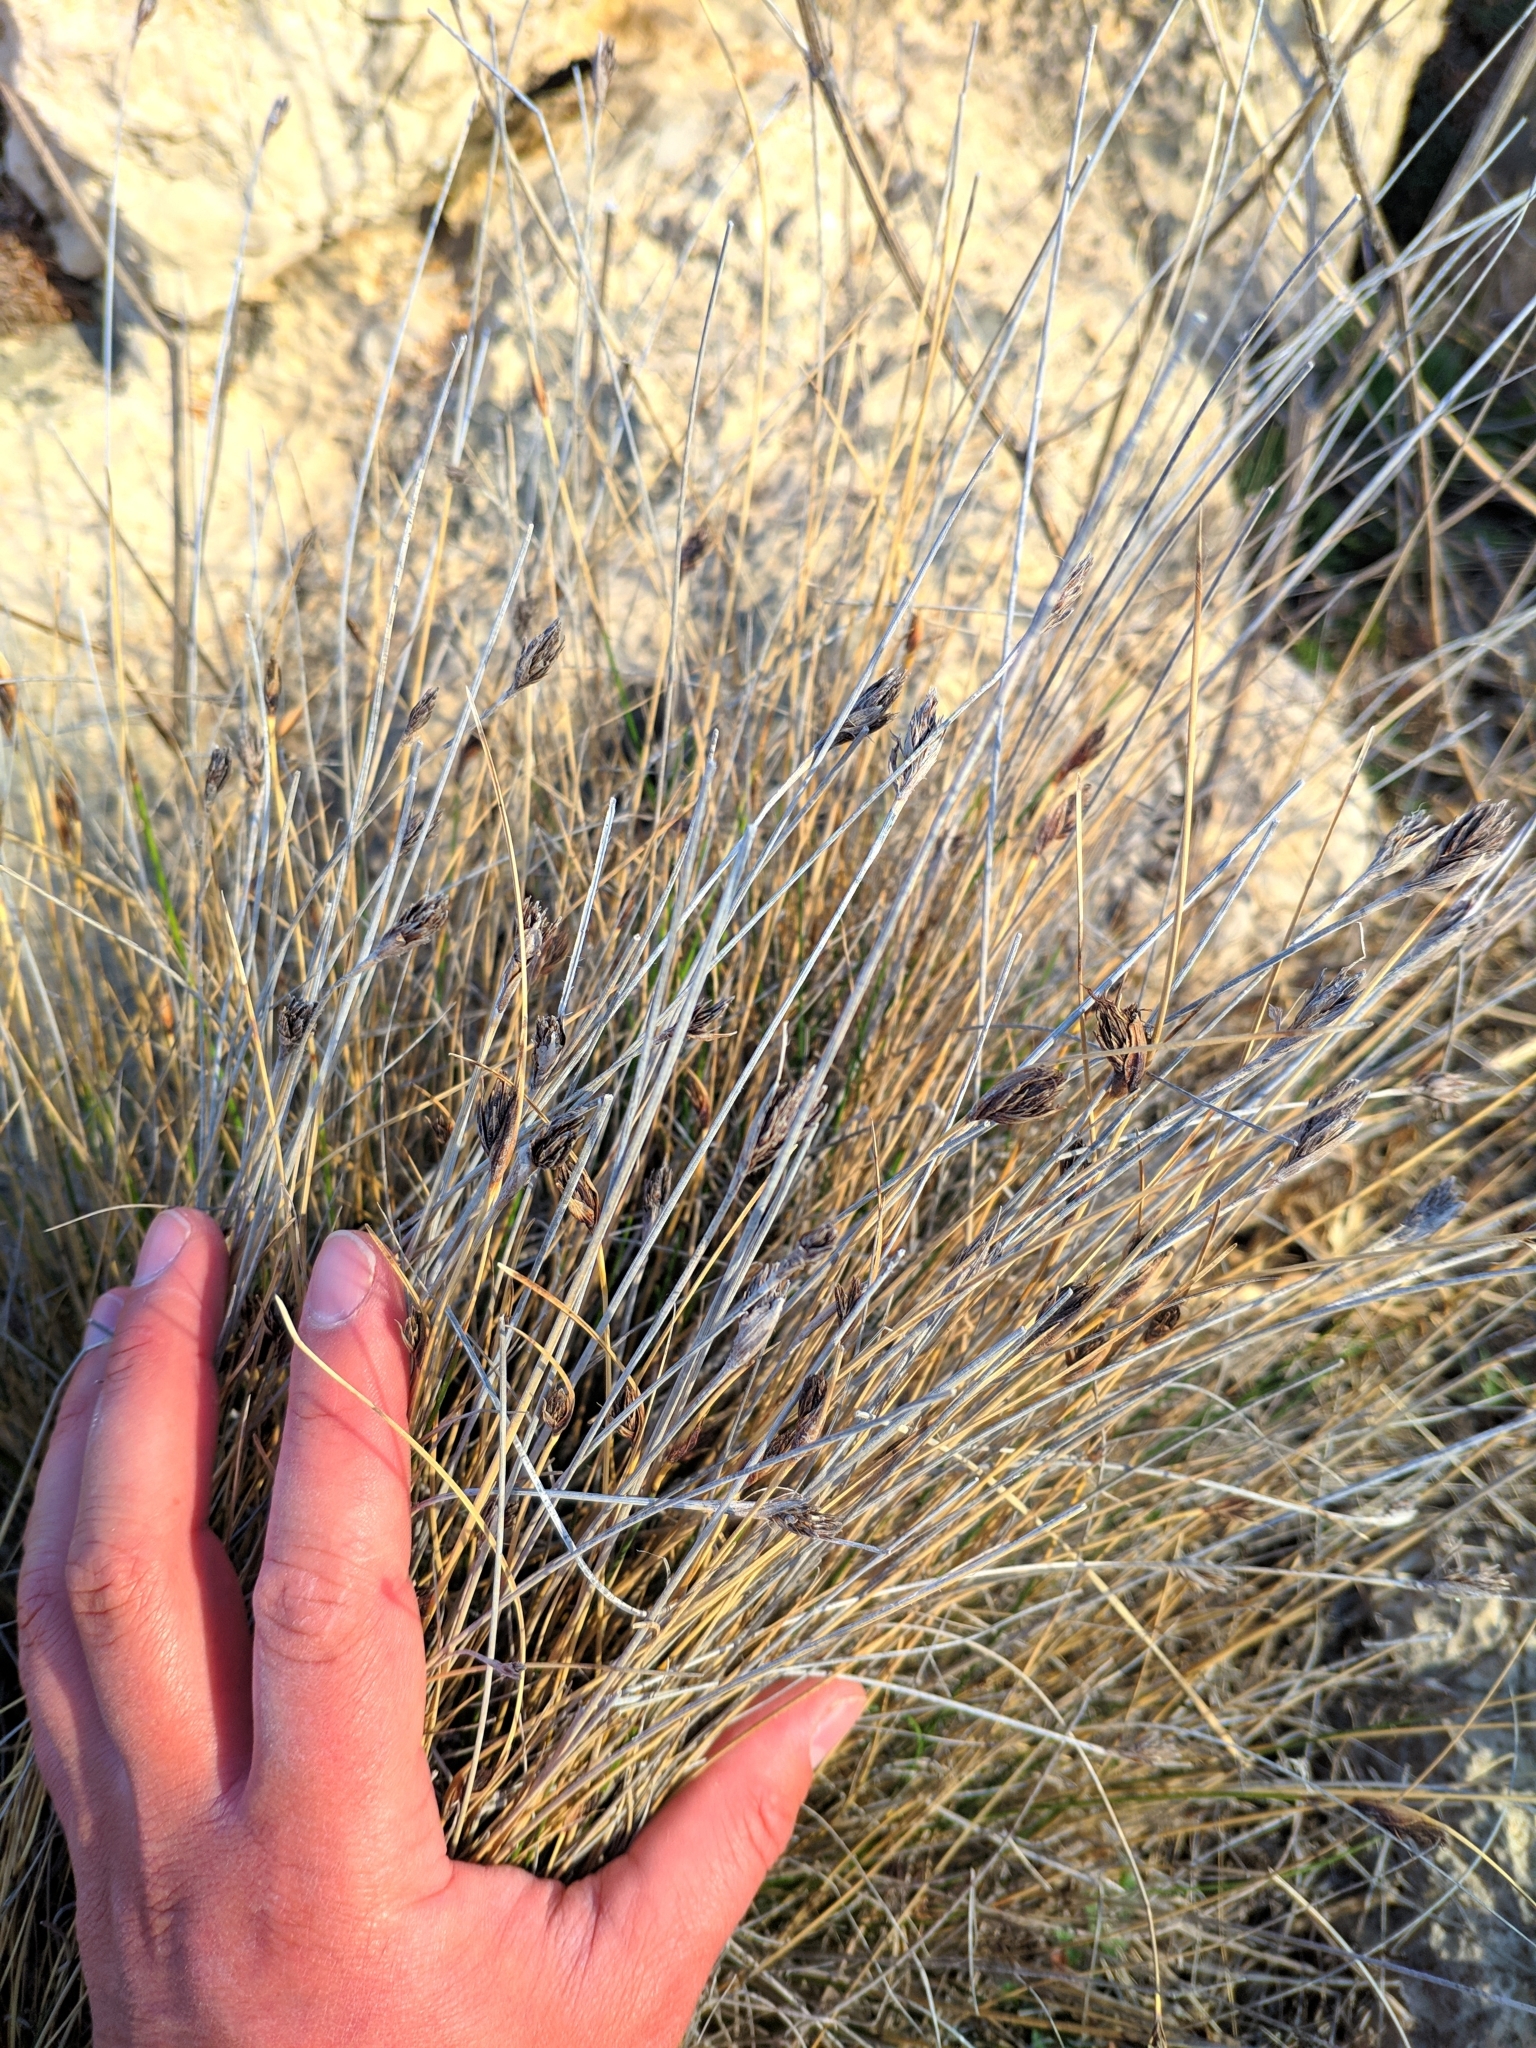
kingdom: Plantae
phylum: Tracheophyta
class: Liliopsida
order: Poales
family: Cyperaceae
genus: Schoenus
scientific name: Schoenus nigricans
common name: Black bog-rush
